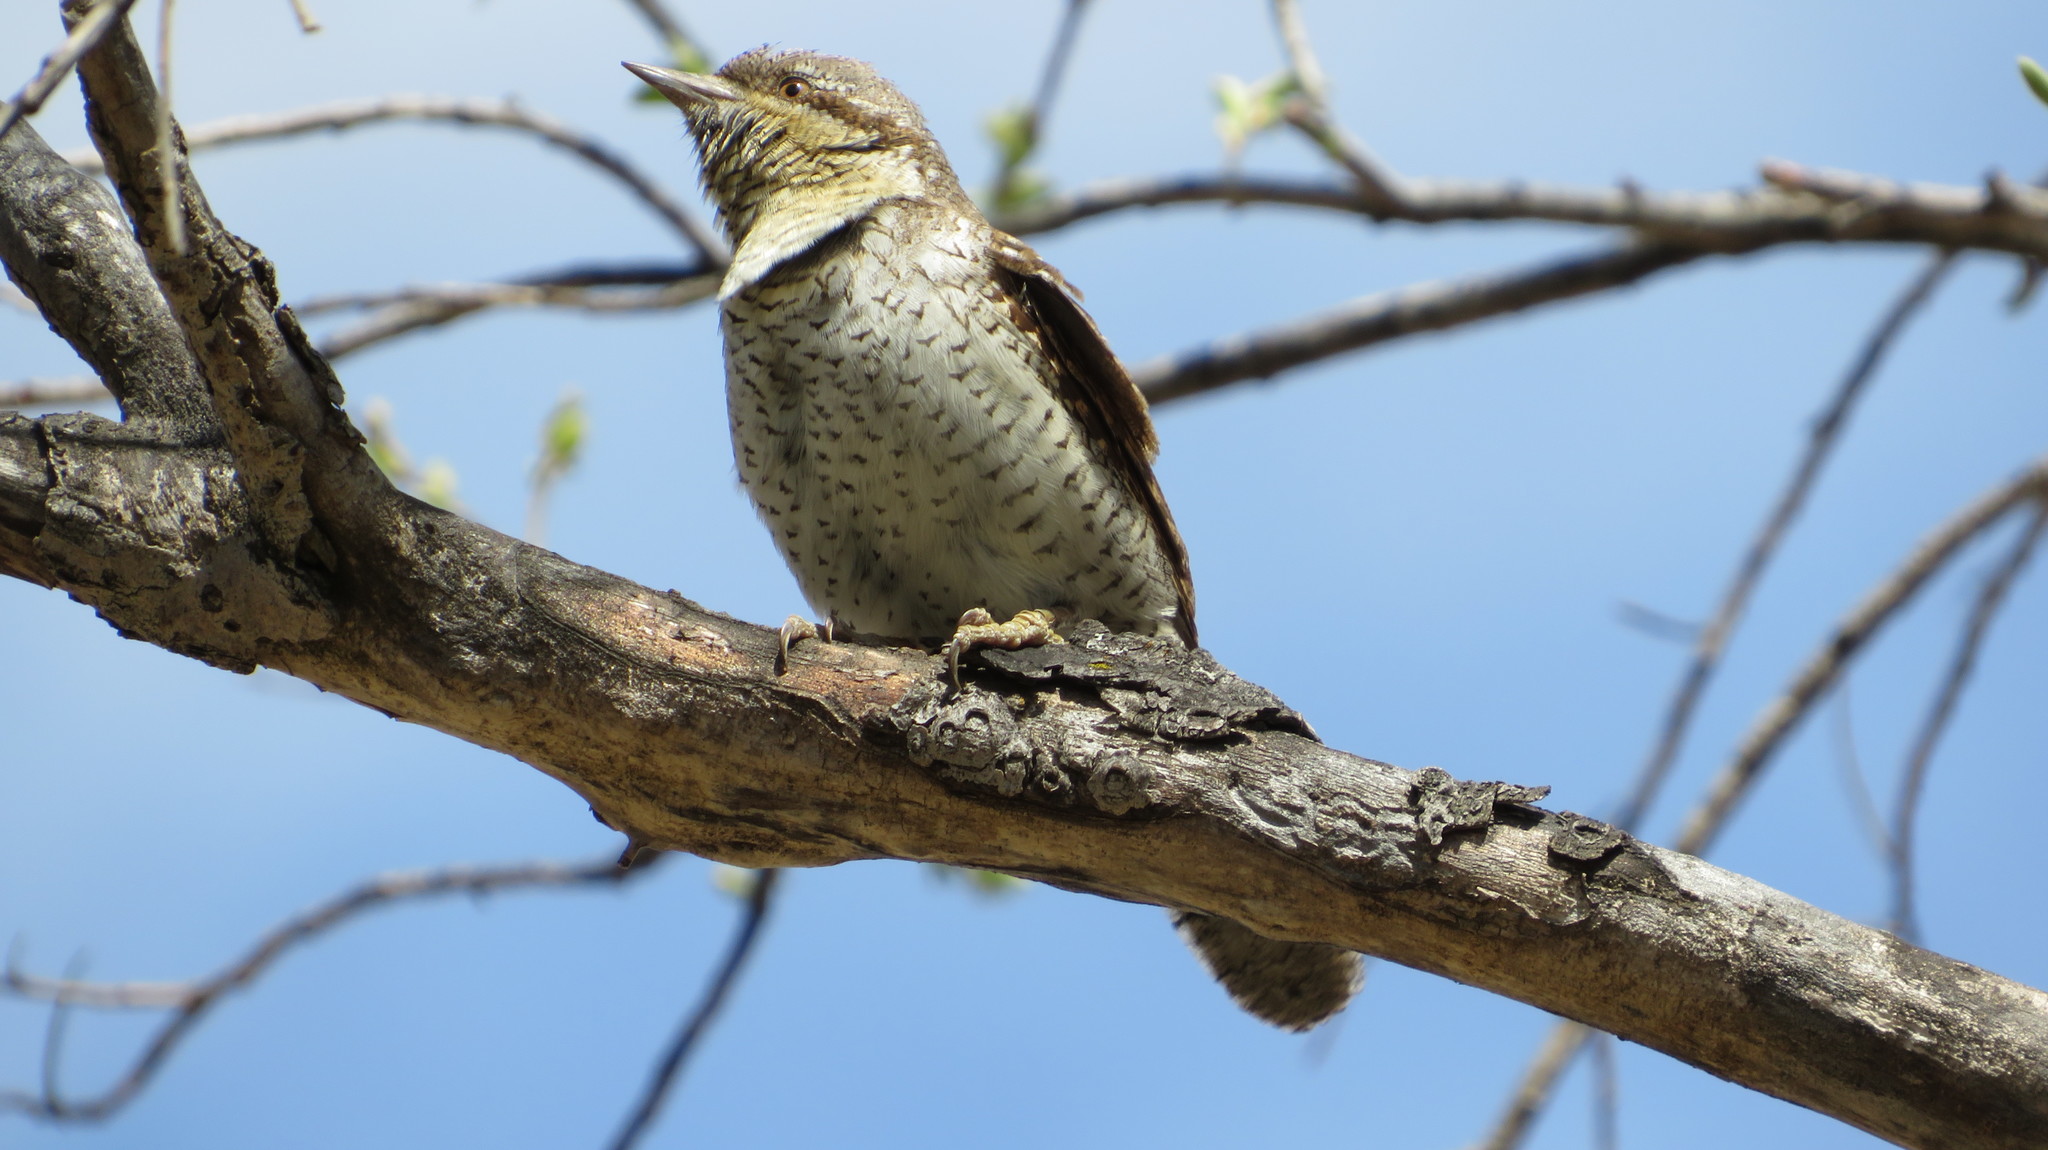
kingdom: Animalia
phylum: Chordata
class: Aves
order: Piciformes
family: Picidae
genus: Jynx
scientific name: Jynx torquilla
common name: Eurasian wryneck
